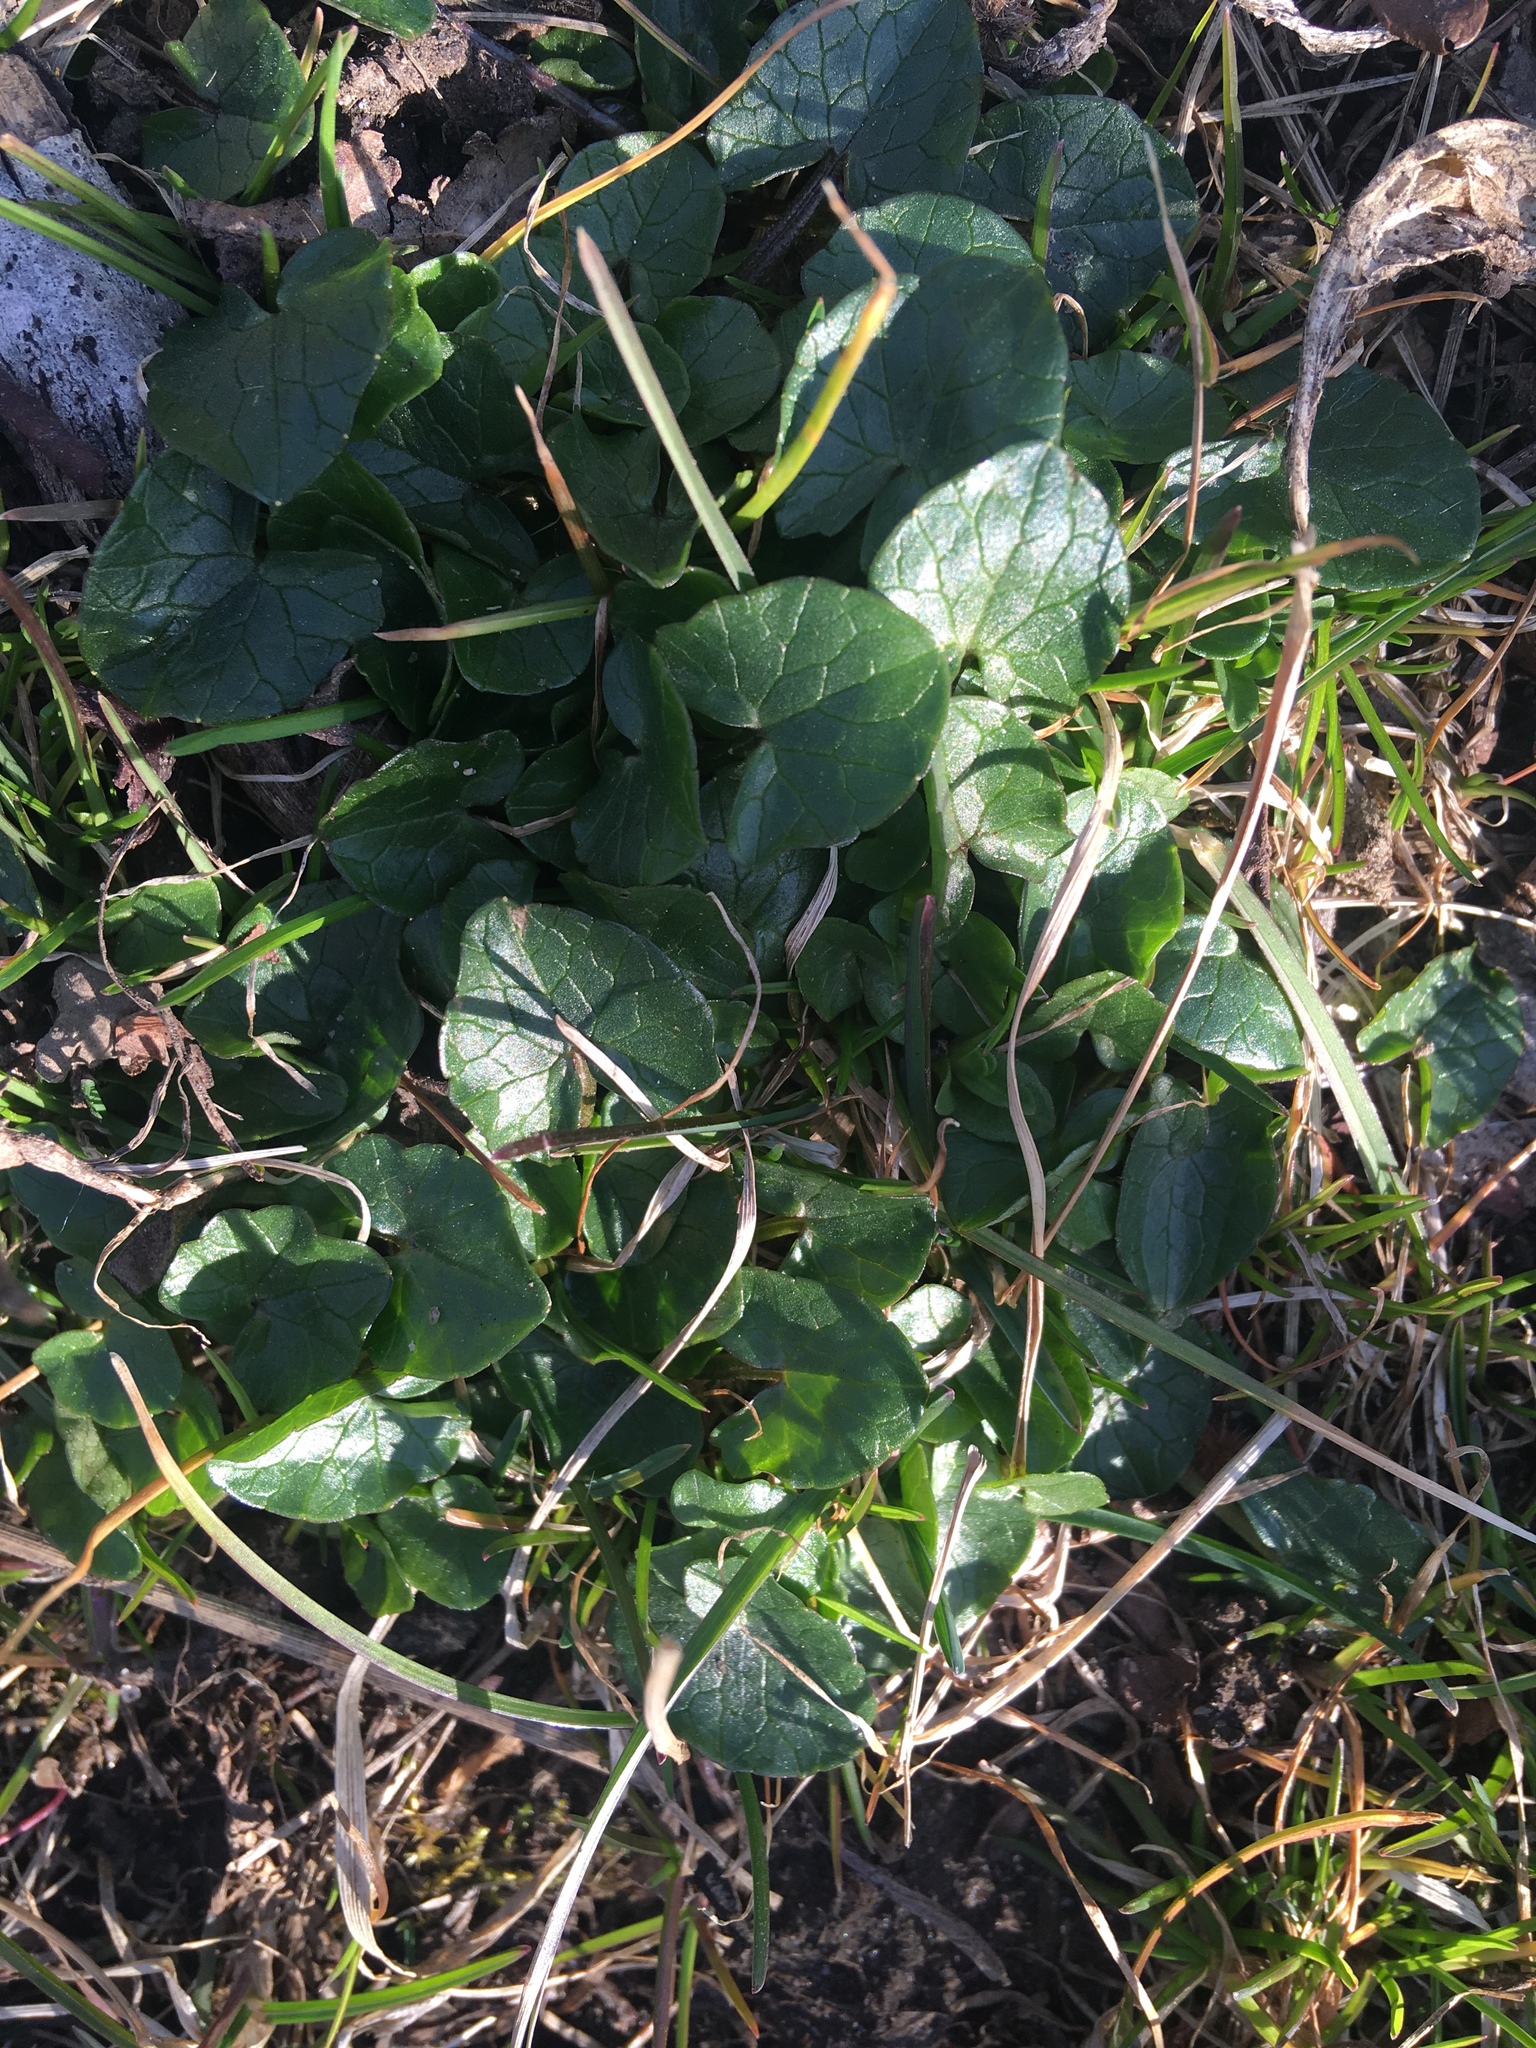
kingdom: Plantae
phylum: Tracheophyta
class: Magnoliopsida
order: Ranunculales
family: Ranunculaceae
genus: Ficaria
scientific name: Ficaria verna
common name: Lesser celandine
